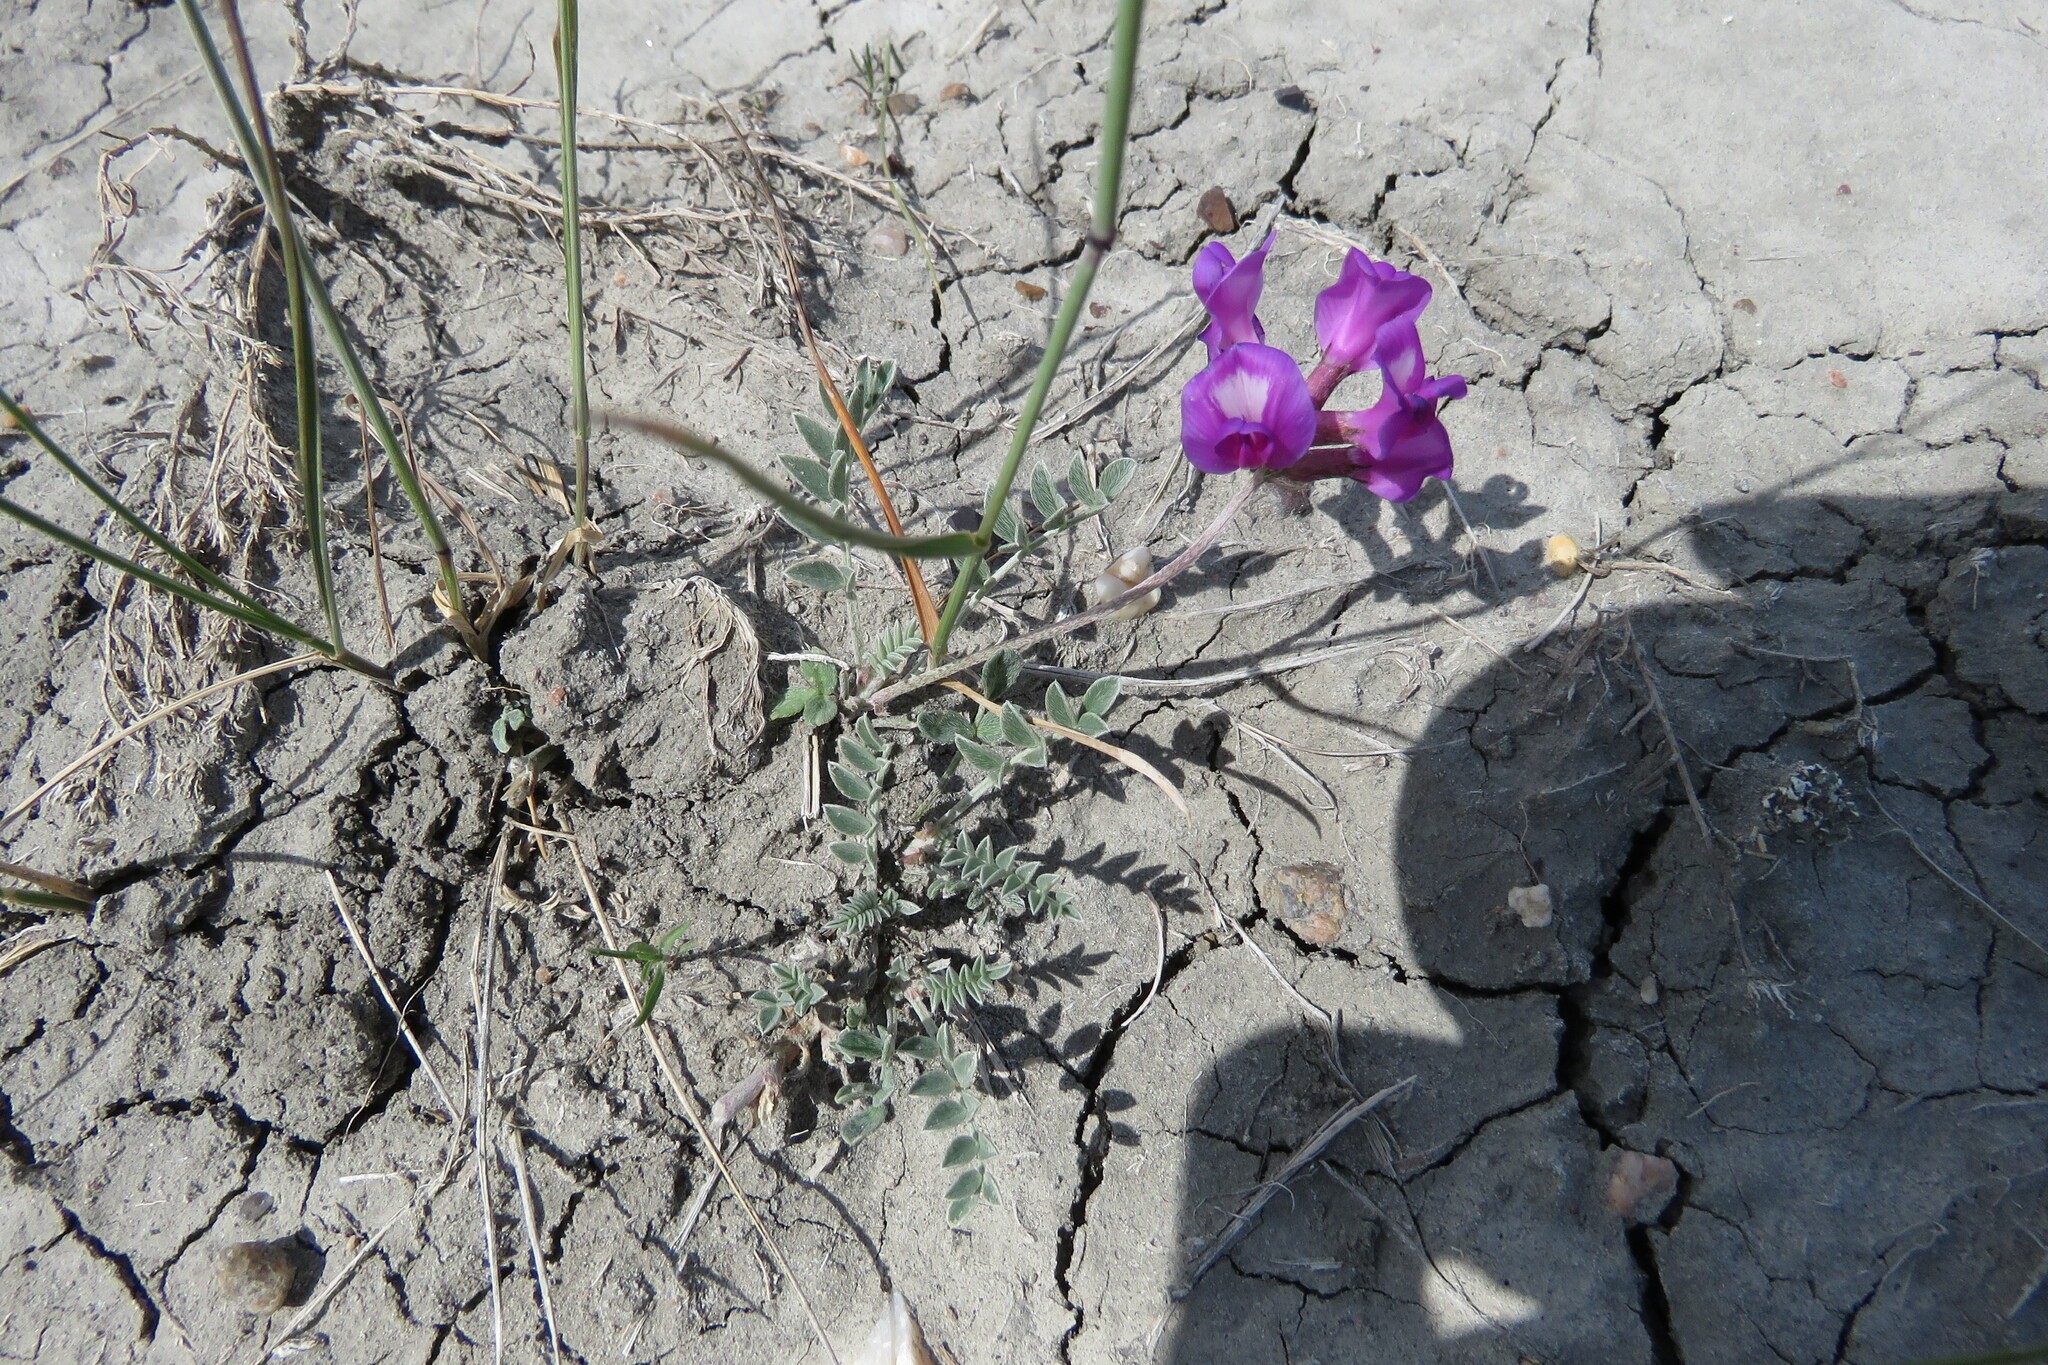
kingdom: Plantae
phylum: Tracheophyta
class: Magnoliopsida
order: Fabales
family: Fabaceae
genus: Astragalus
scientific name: Astragalus missouriensis
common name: Missouri milk-vetch
